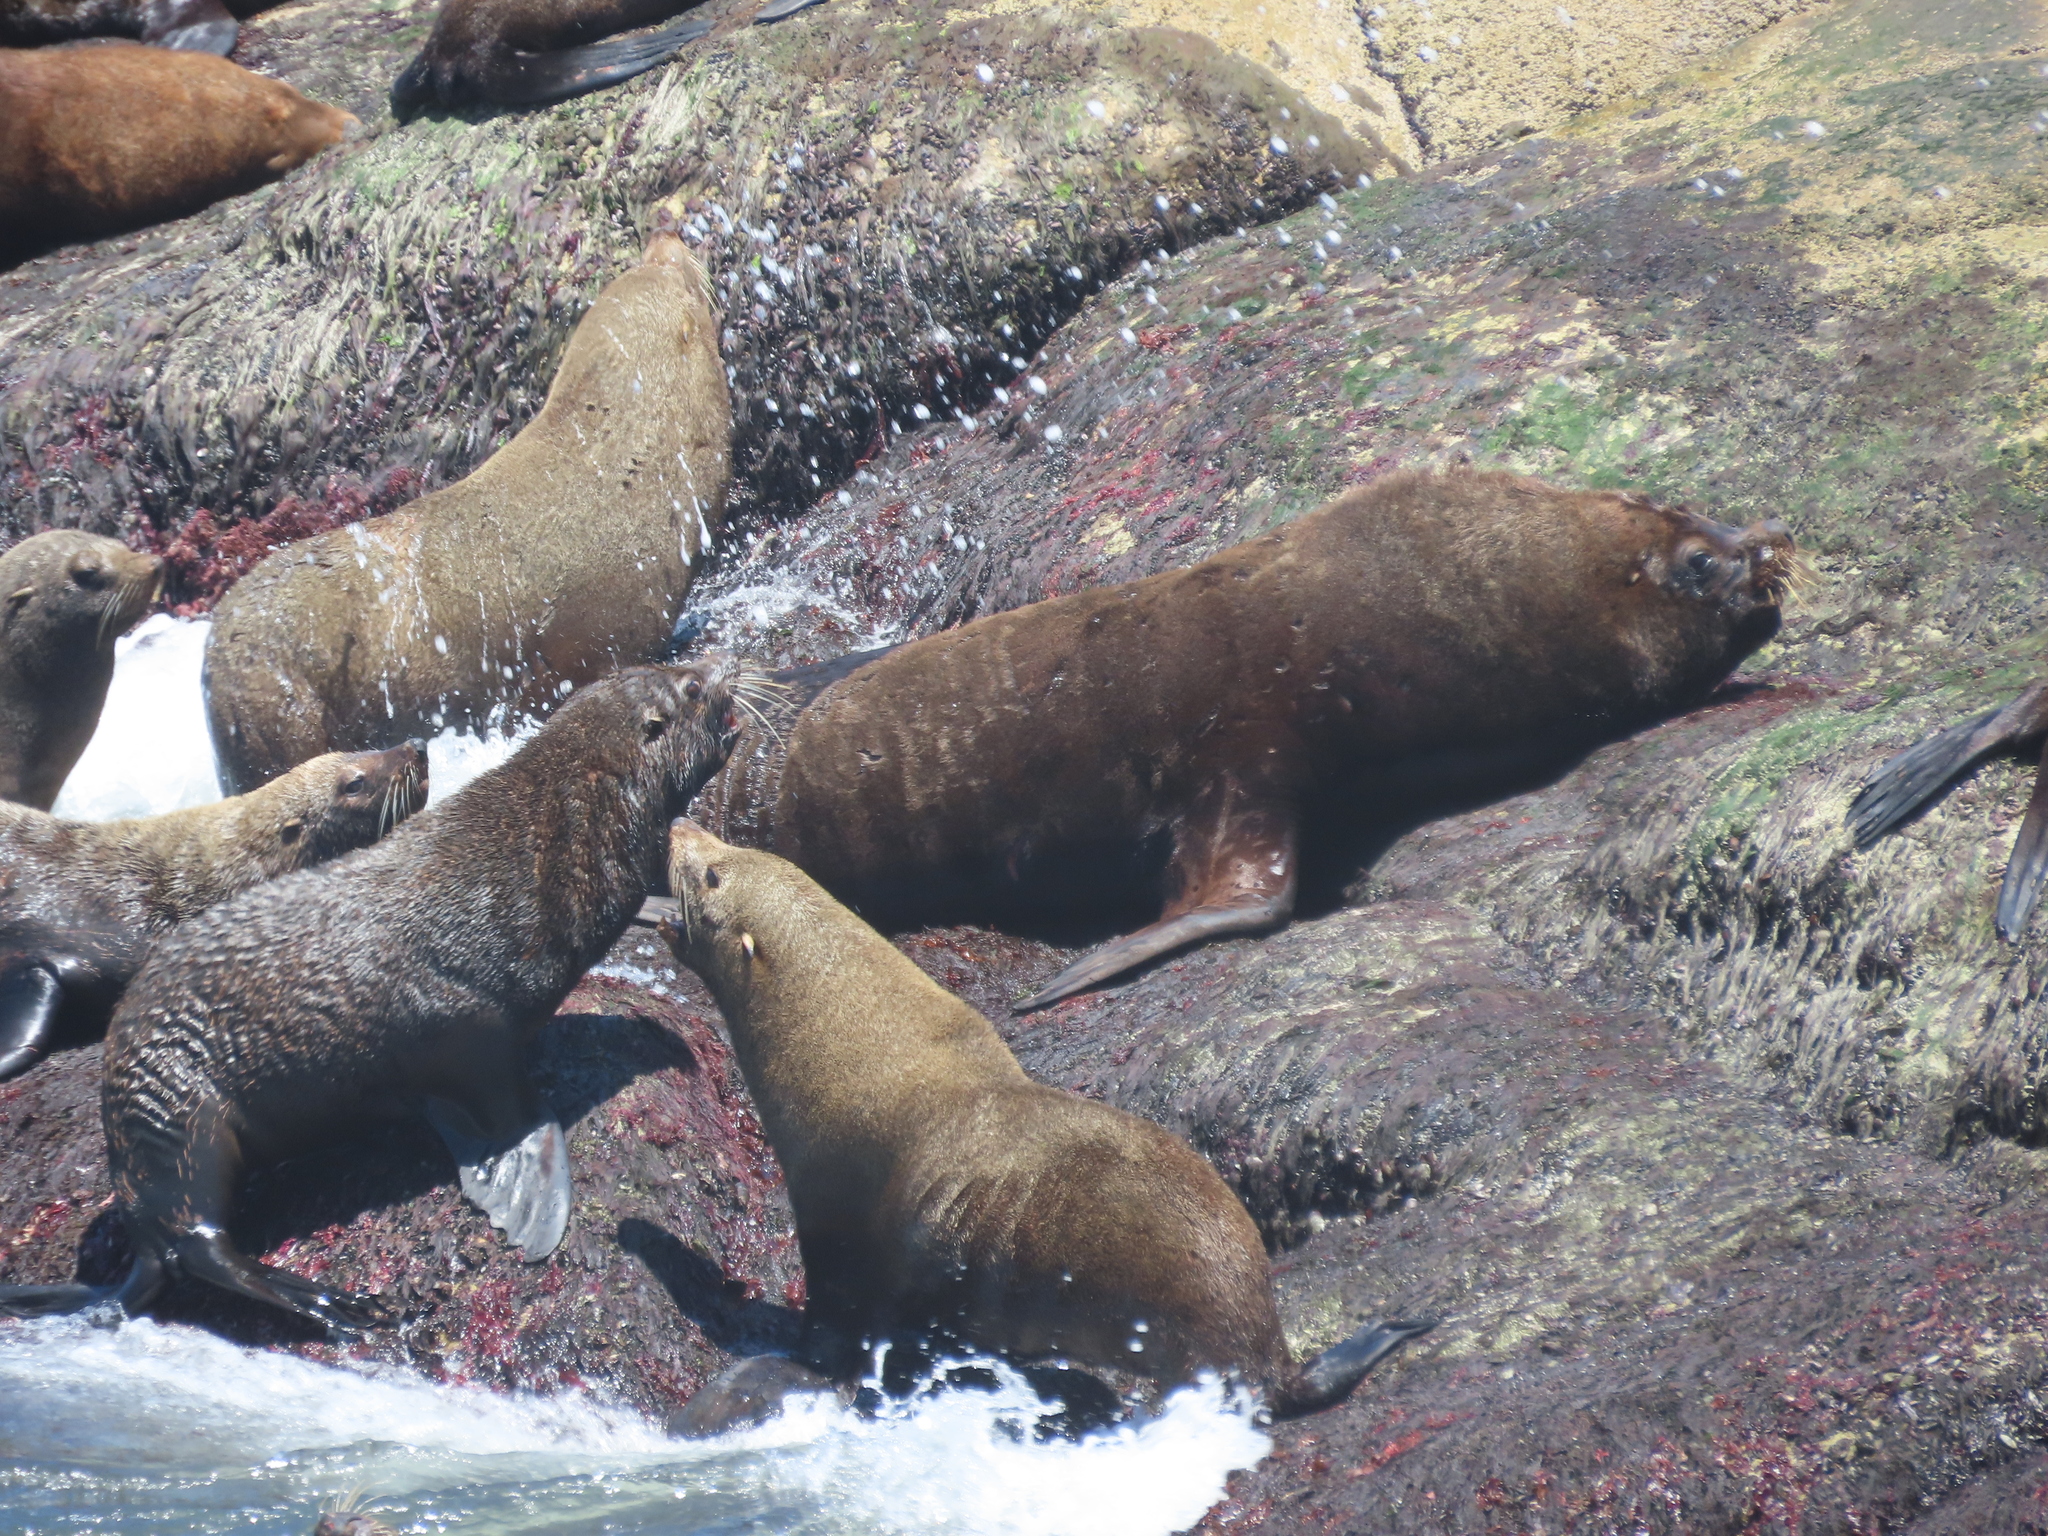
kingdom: Animalia
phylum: Chordata
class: Mammalia
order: Carnivora
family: Otariidae
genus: Otaria
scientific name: Otaria byronia
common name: South american sea lion
